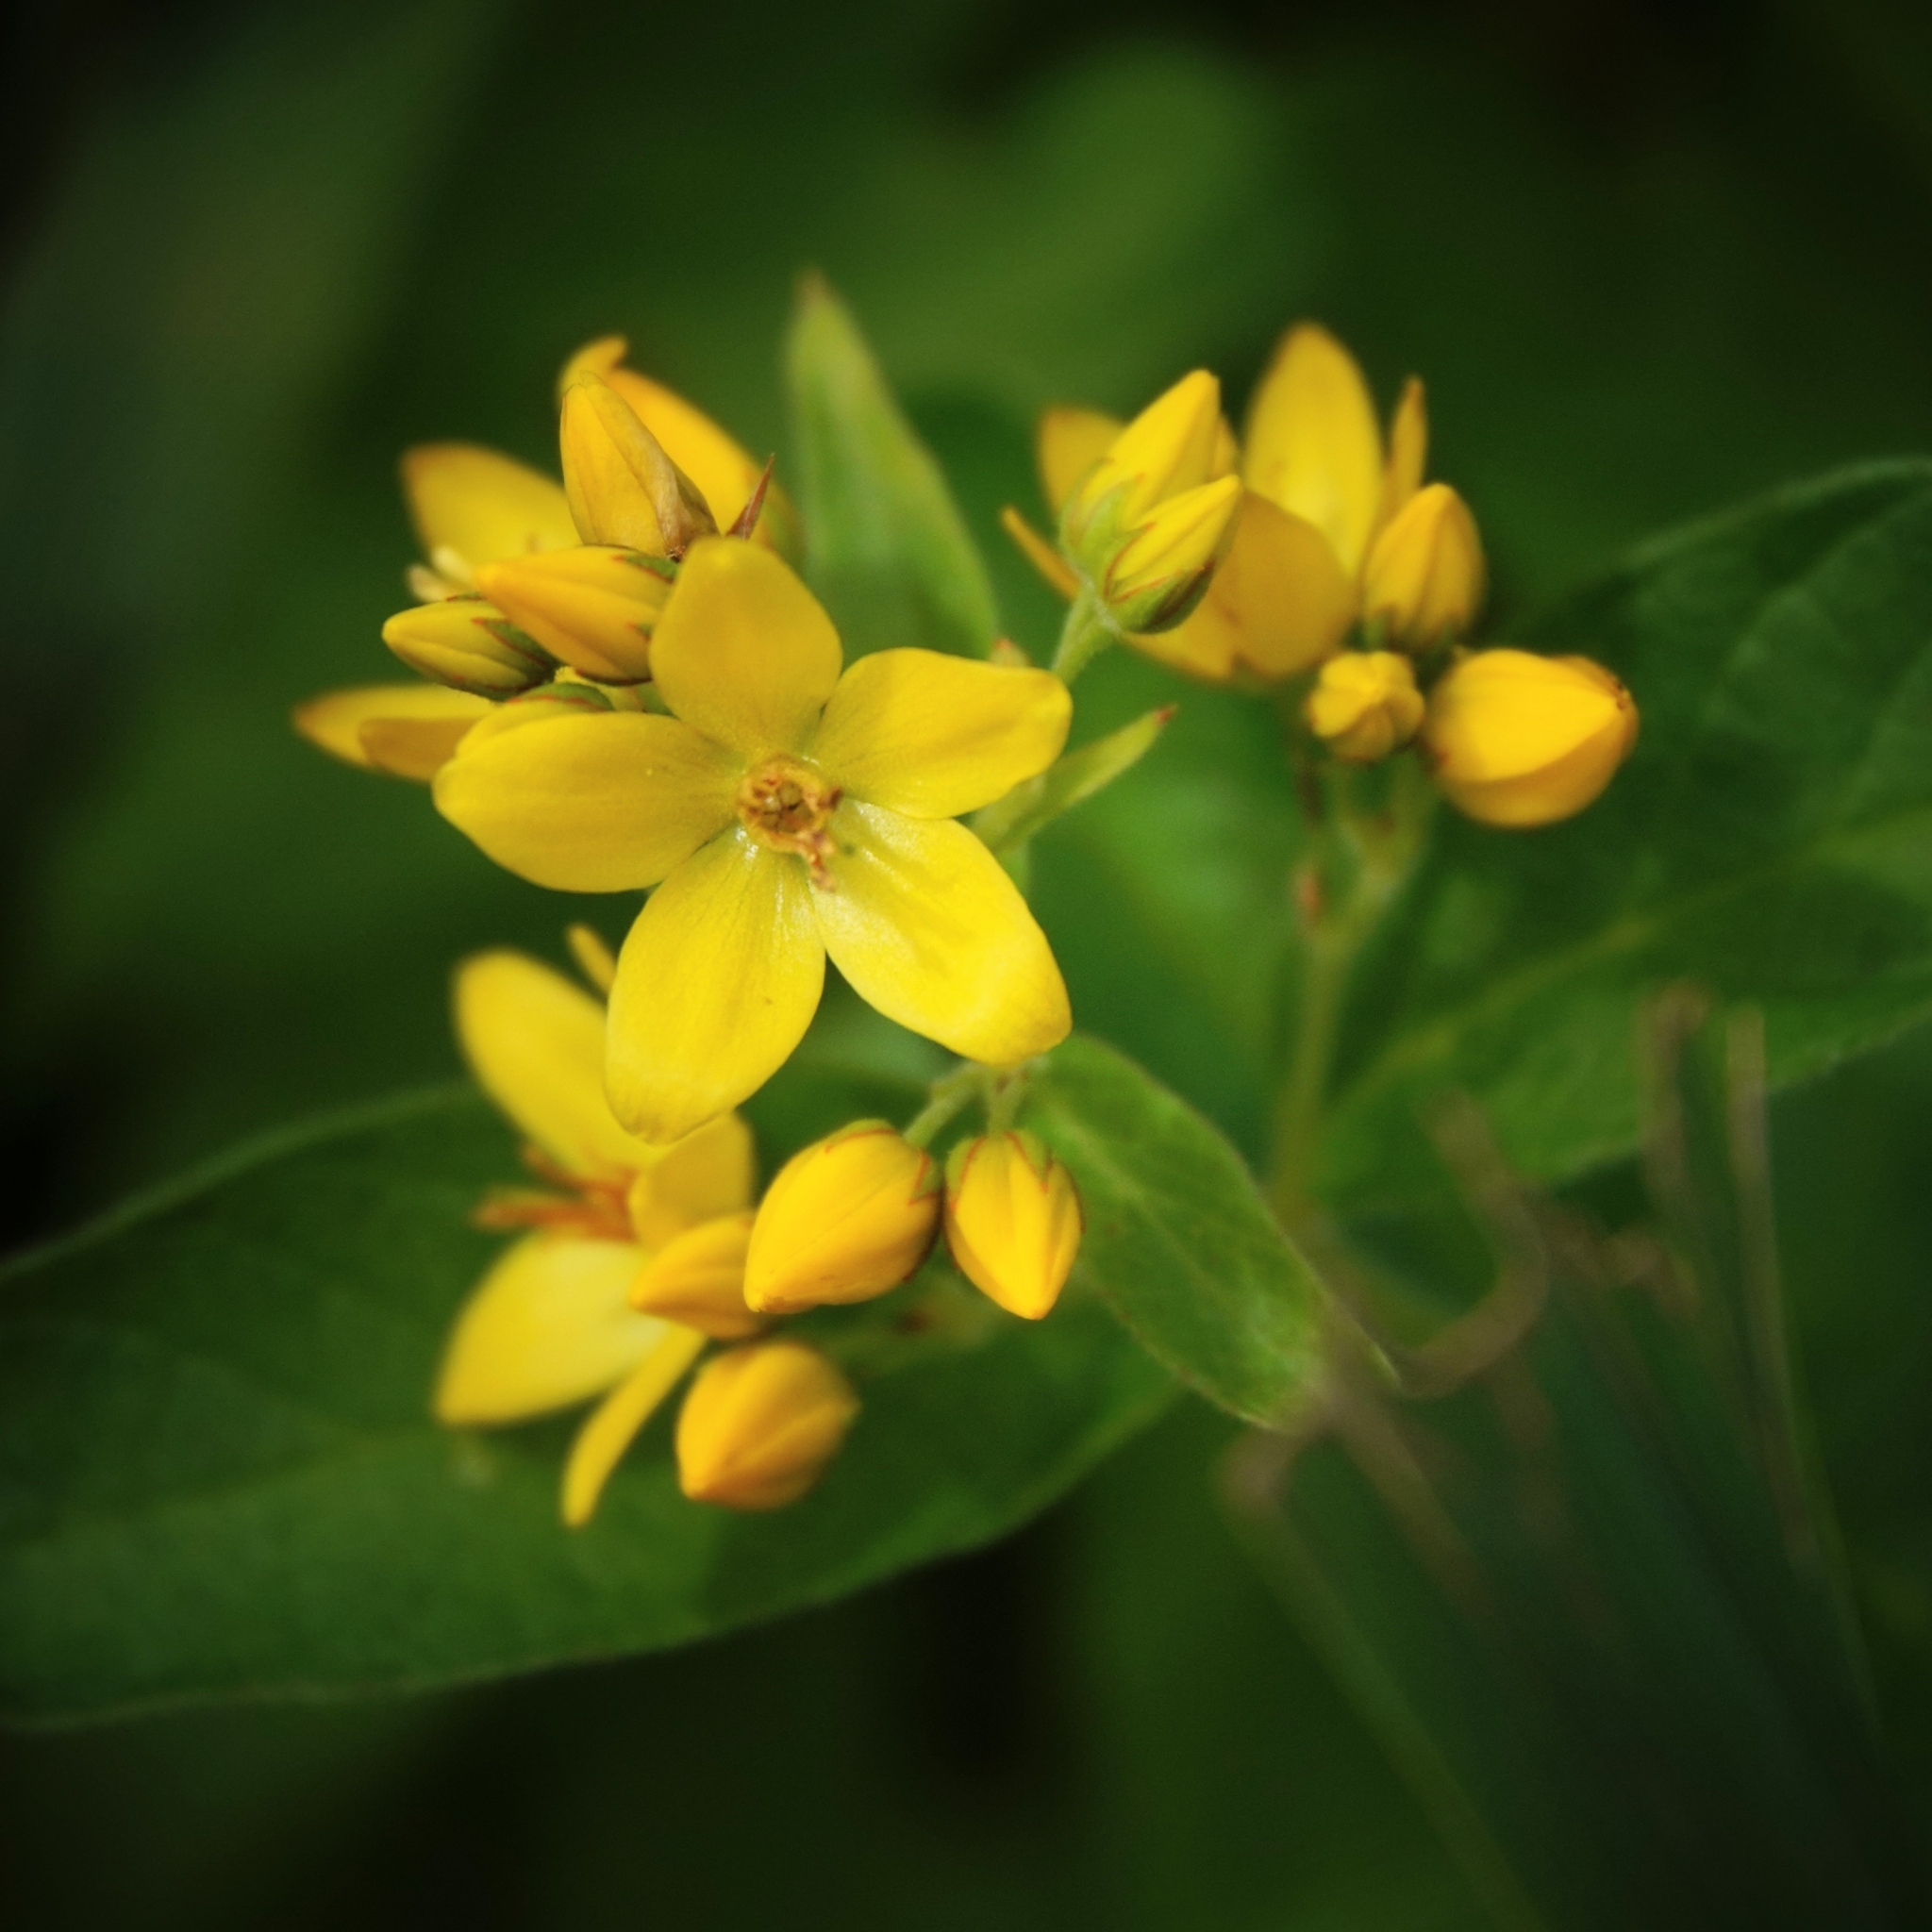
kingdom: Plantae
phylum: Tracheophyta
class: Magnoliopsida
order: Ericales
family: Primulaceae
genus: Lysimachia
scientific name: Lysimachia vulgaris
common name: Yellow loosestrife
